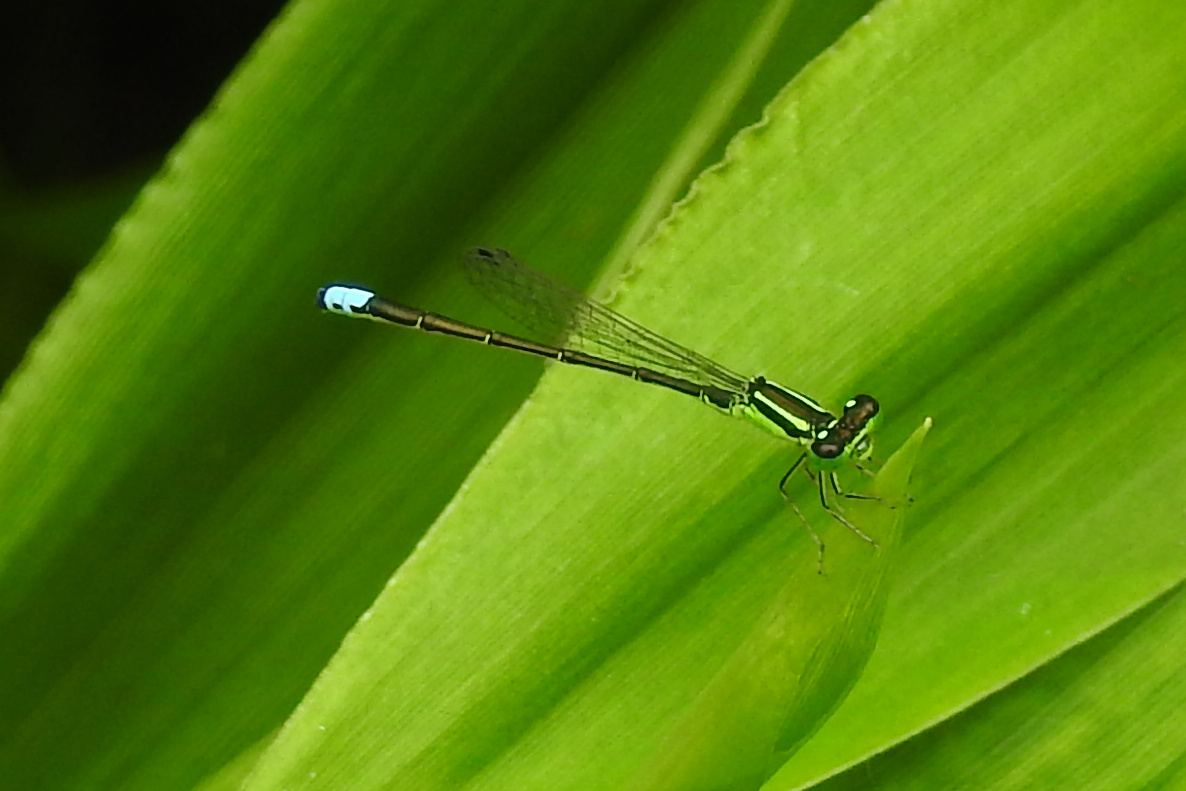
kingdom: Animalia
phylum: Arthropoda
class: Insecta
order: Odonata
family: Coenagrionidae
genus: Ischnura
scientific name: Ischnura verticalis
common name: Eastern forktail
